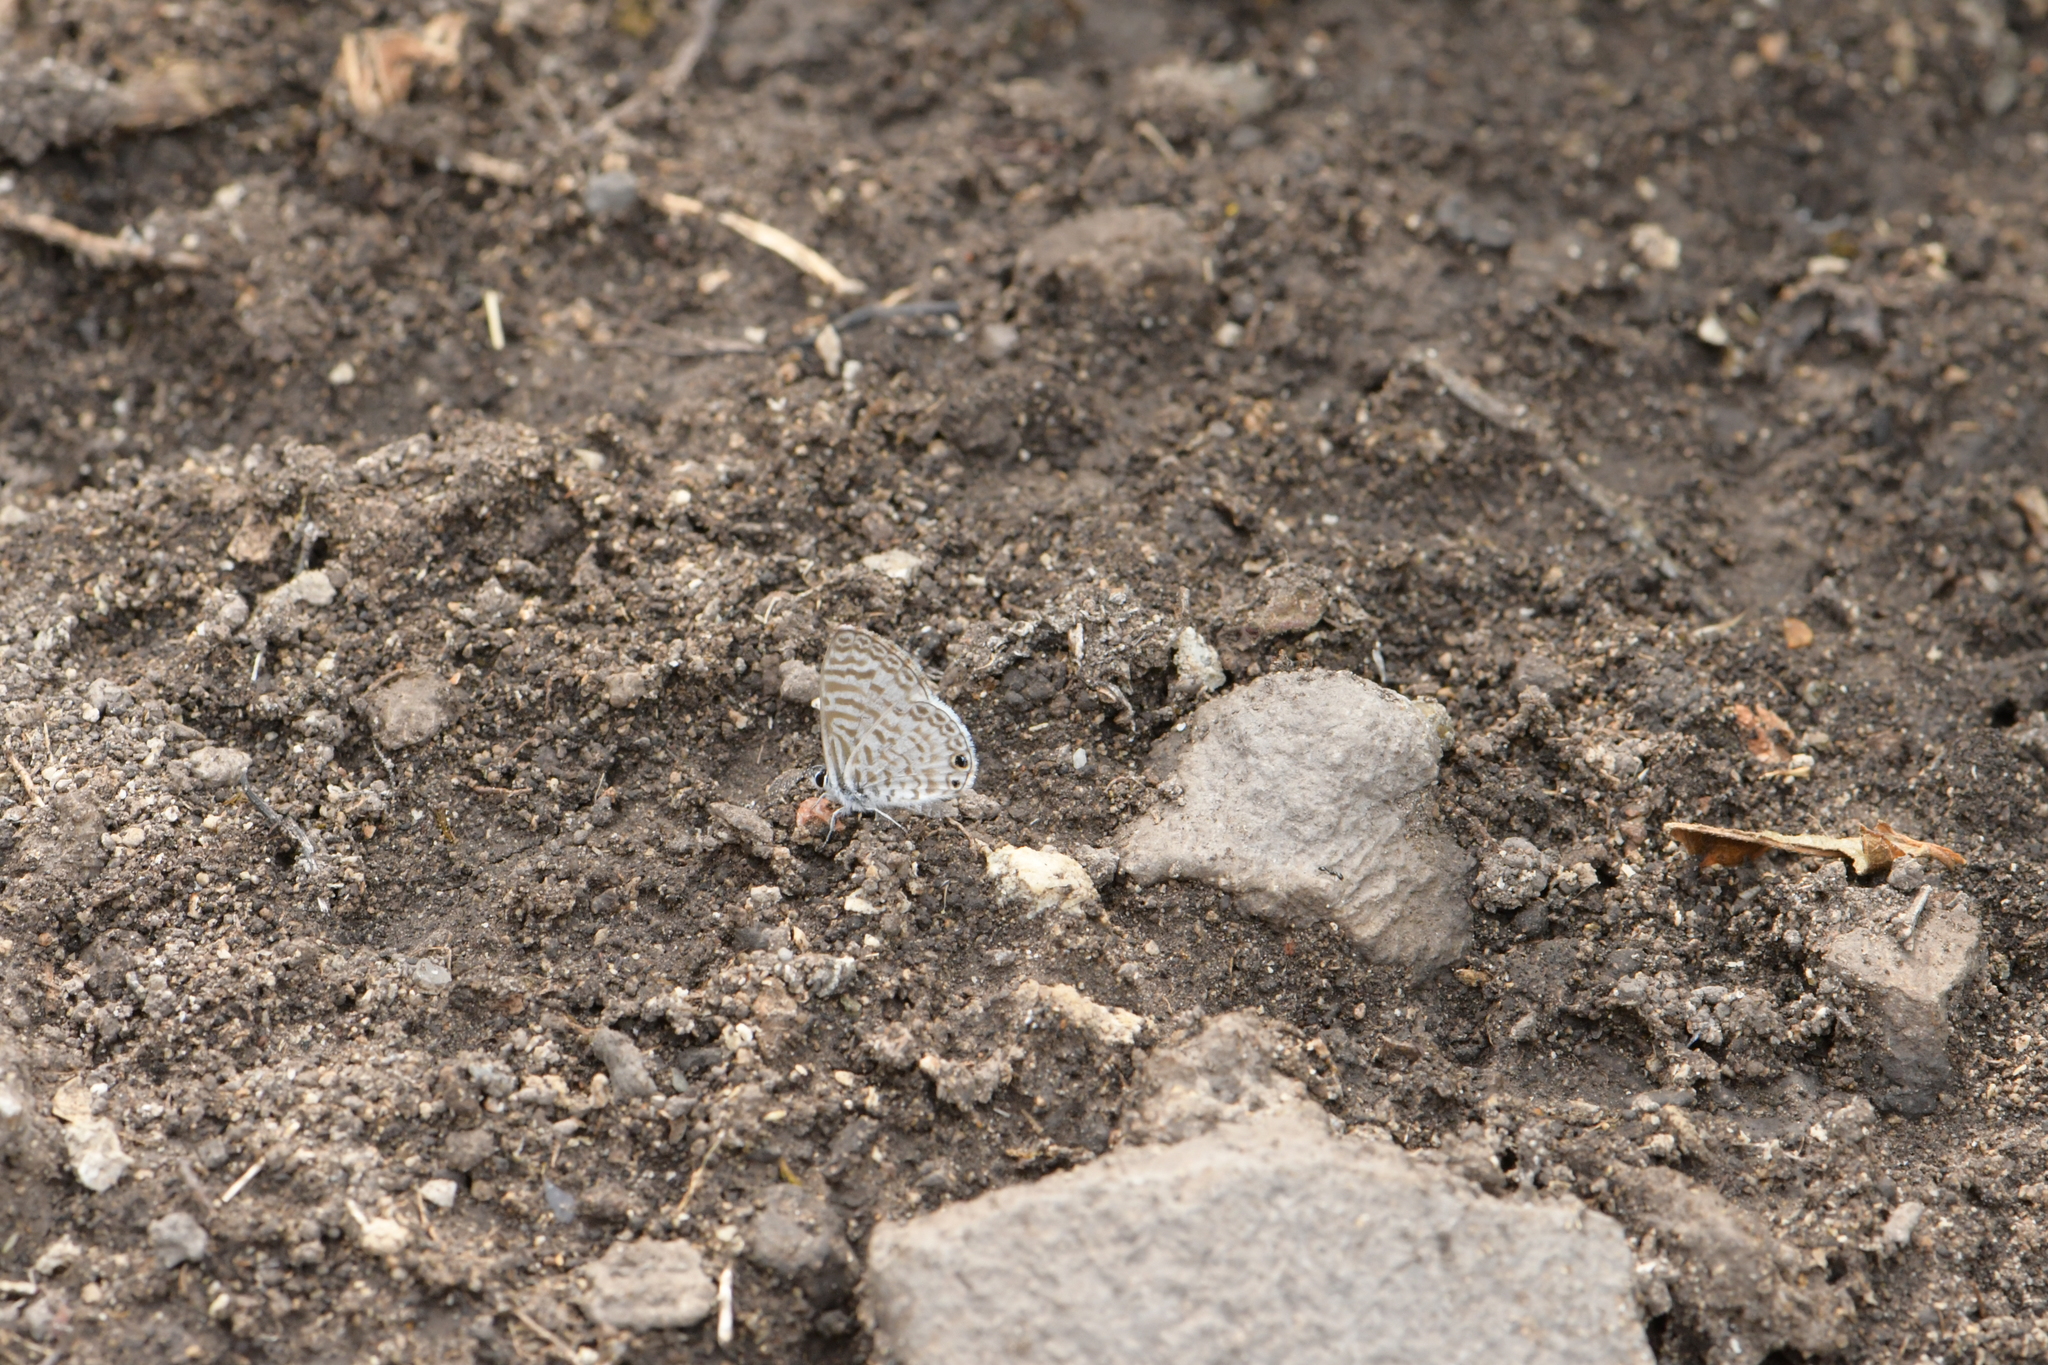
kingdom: Animalia
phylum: Arthropoda
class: Insecta
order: Lepidoptera
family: Lycaenidae
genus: Leptotes
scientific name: Leptotes theonus
